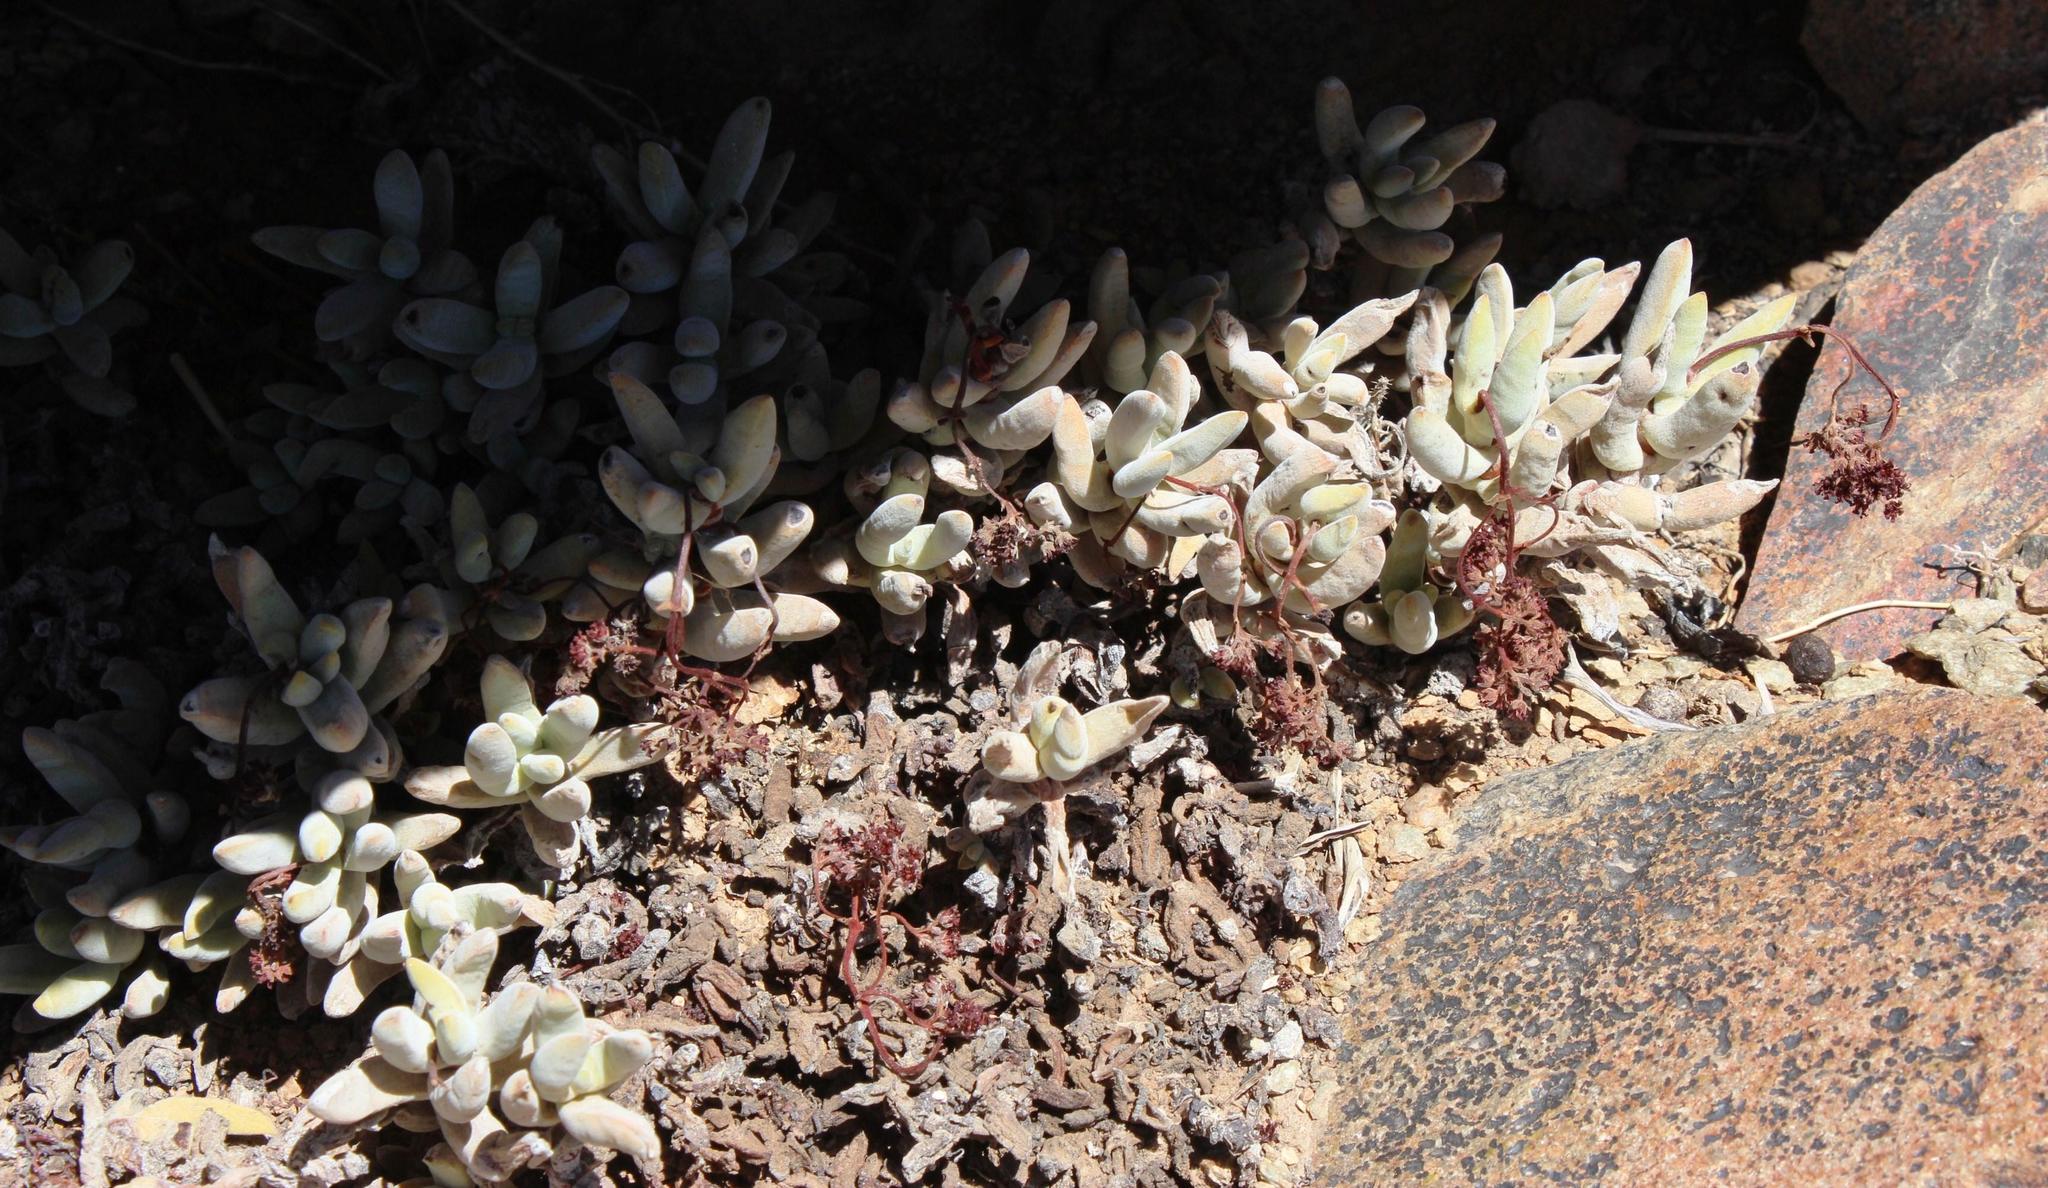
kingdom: Plantae
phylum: Tracheophyta
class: Magnoliopsida
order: Saxifragales
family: Crassulaceae
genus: Crassula
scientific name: Crassula garibina
